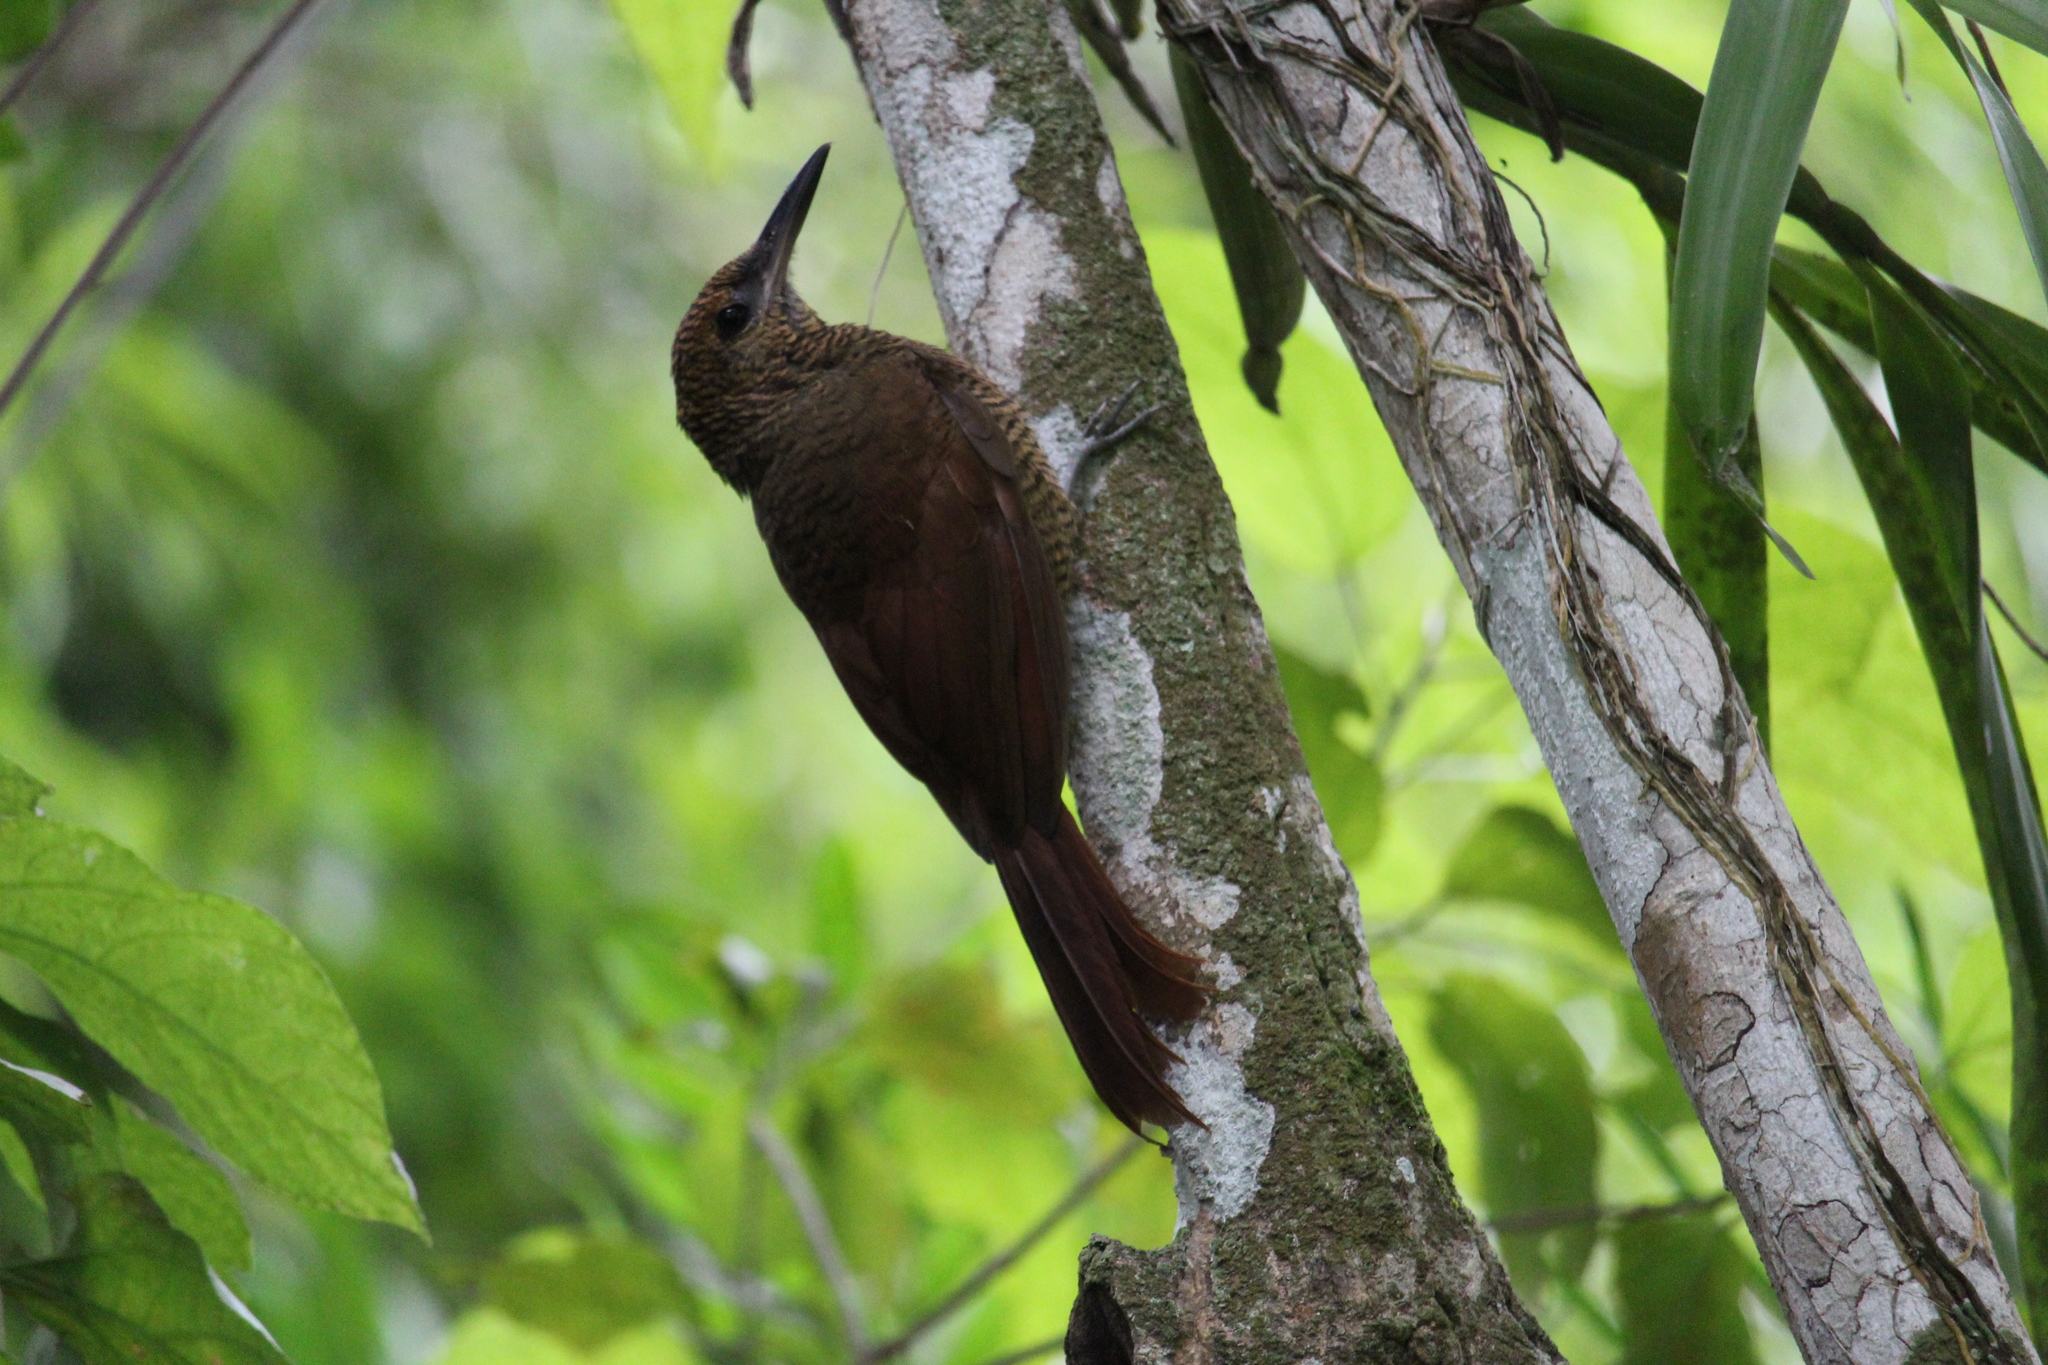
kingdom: Animalia
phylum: Chordata
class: Aves
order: Passeriformes
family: Furnariidae
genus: Dendrocolaptes
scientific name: Dendrocolaptes sanctithomae
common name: Northern barred-woodcreeper
